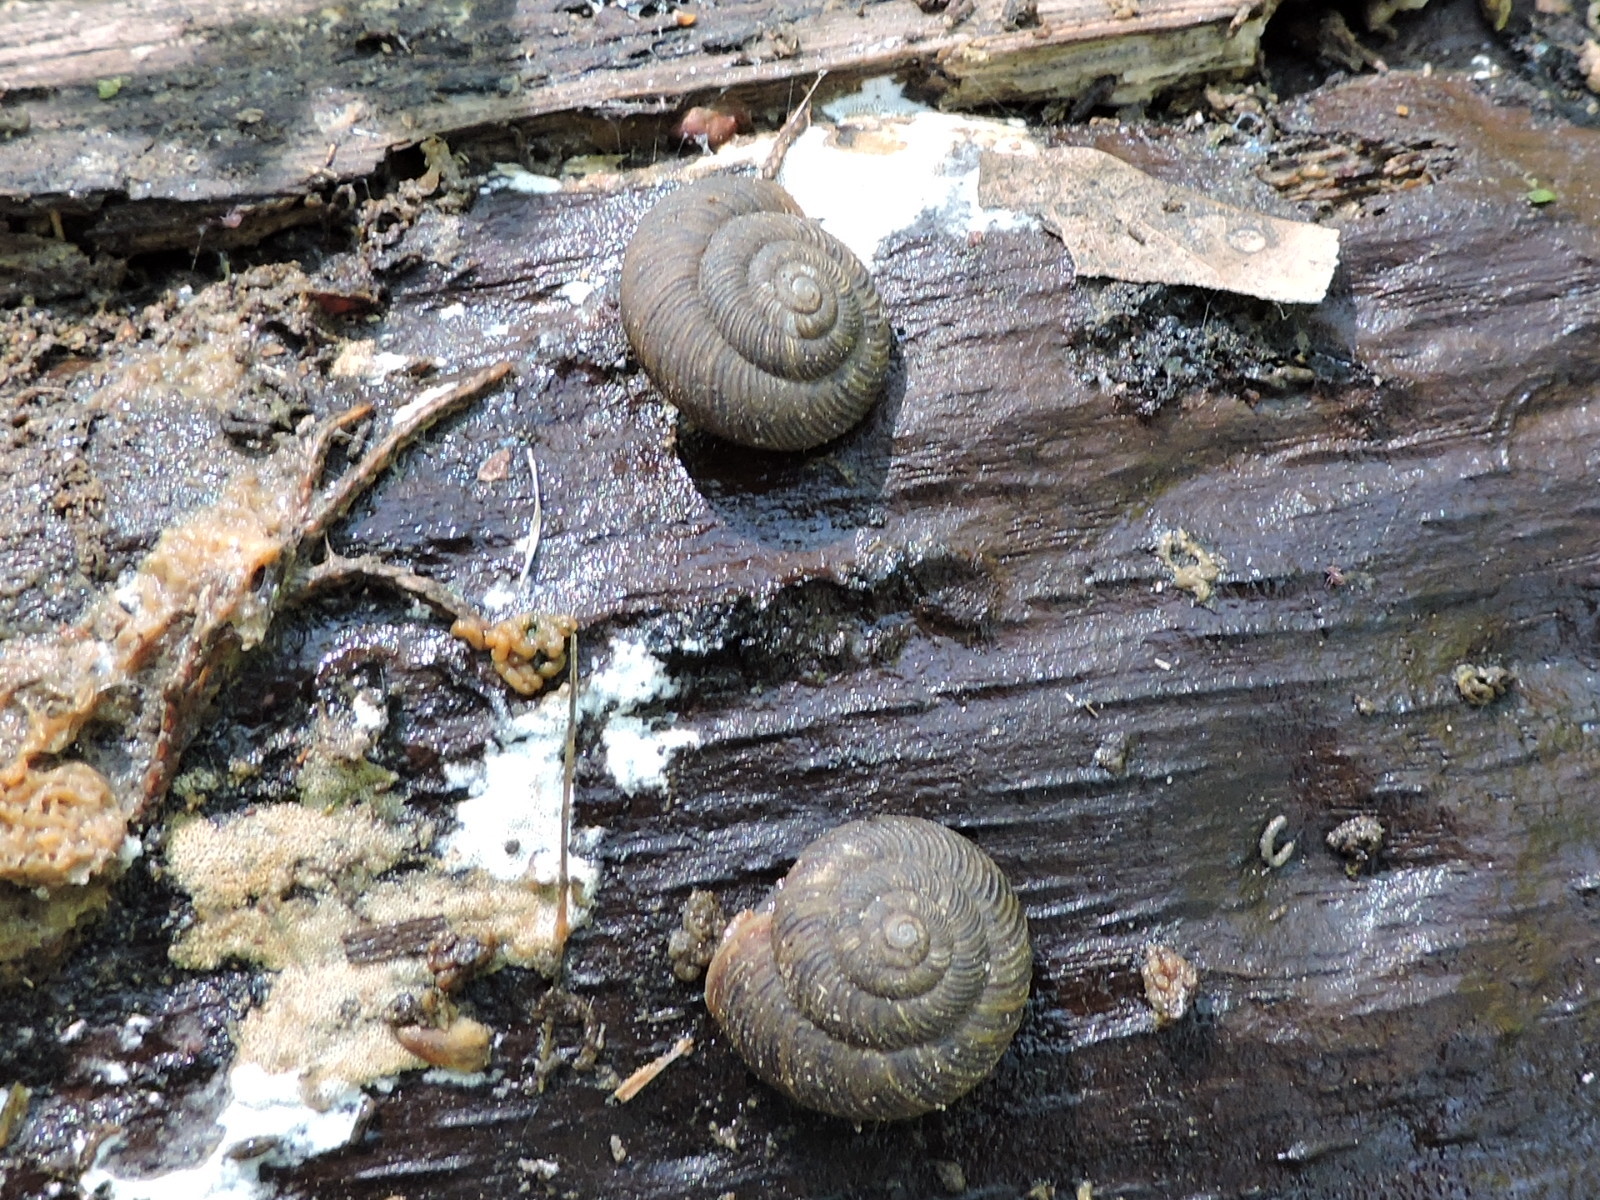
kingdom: Animalia
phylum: Mollusca
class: Gastropoda
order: Stylommatophora
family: Discidae
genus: Anguispira
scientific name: Anguispira strongylodes
